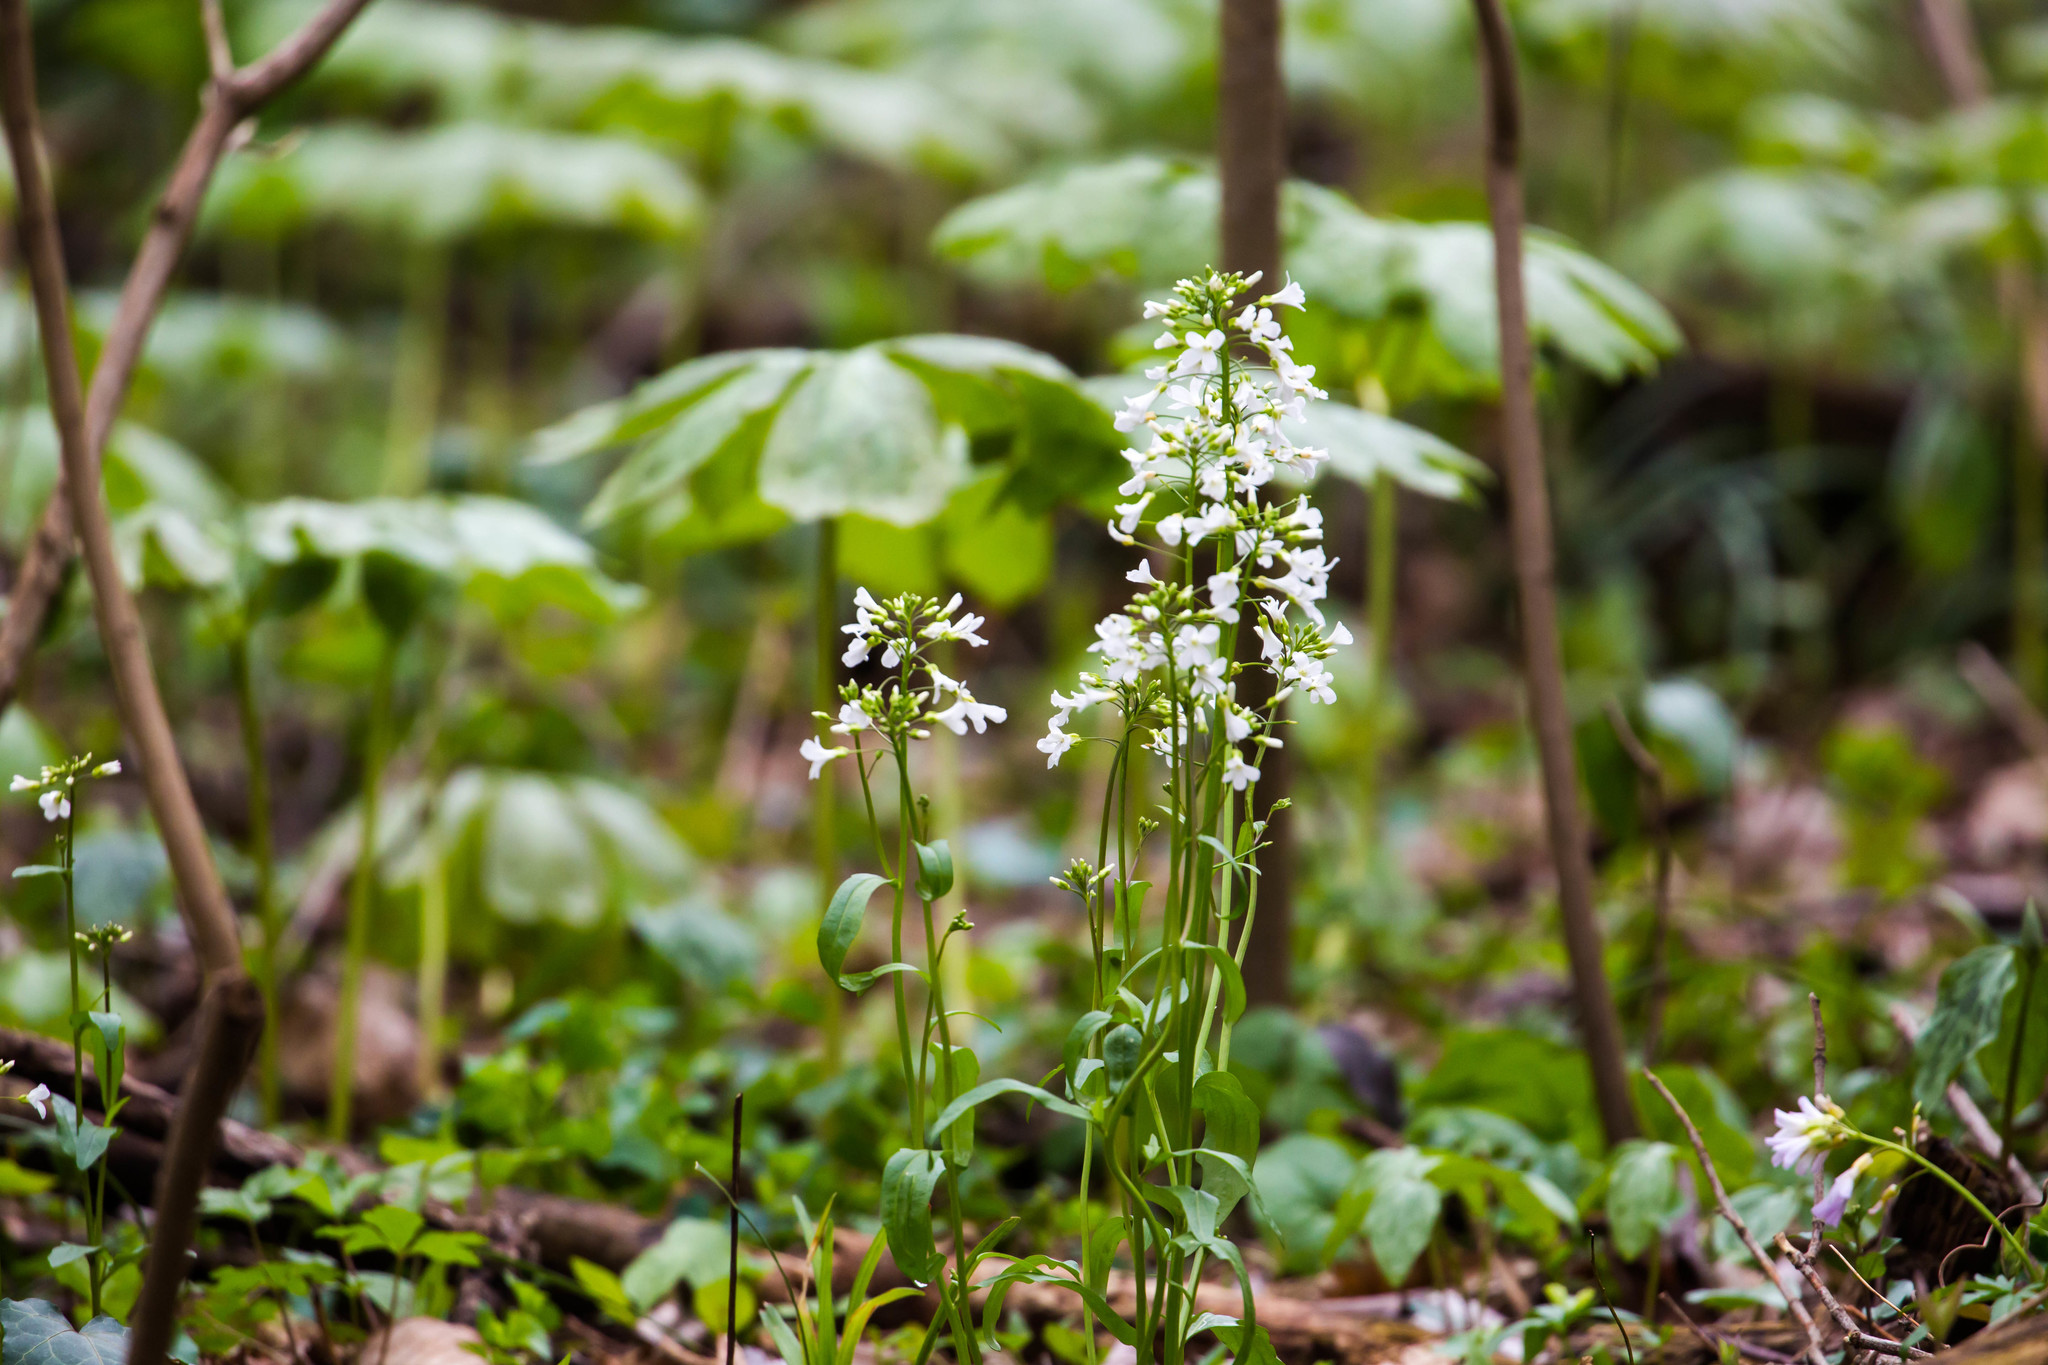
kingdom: Plantae
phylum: Tracheophyta
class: Magnoliopsida
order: Brassicales
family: Brassicaceae
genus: Cardamine
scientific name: Cardamine bulbosa
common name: Spring cress
